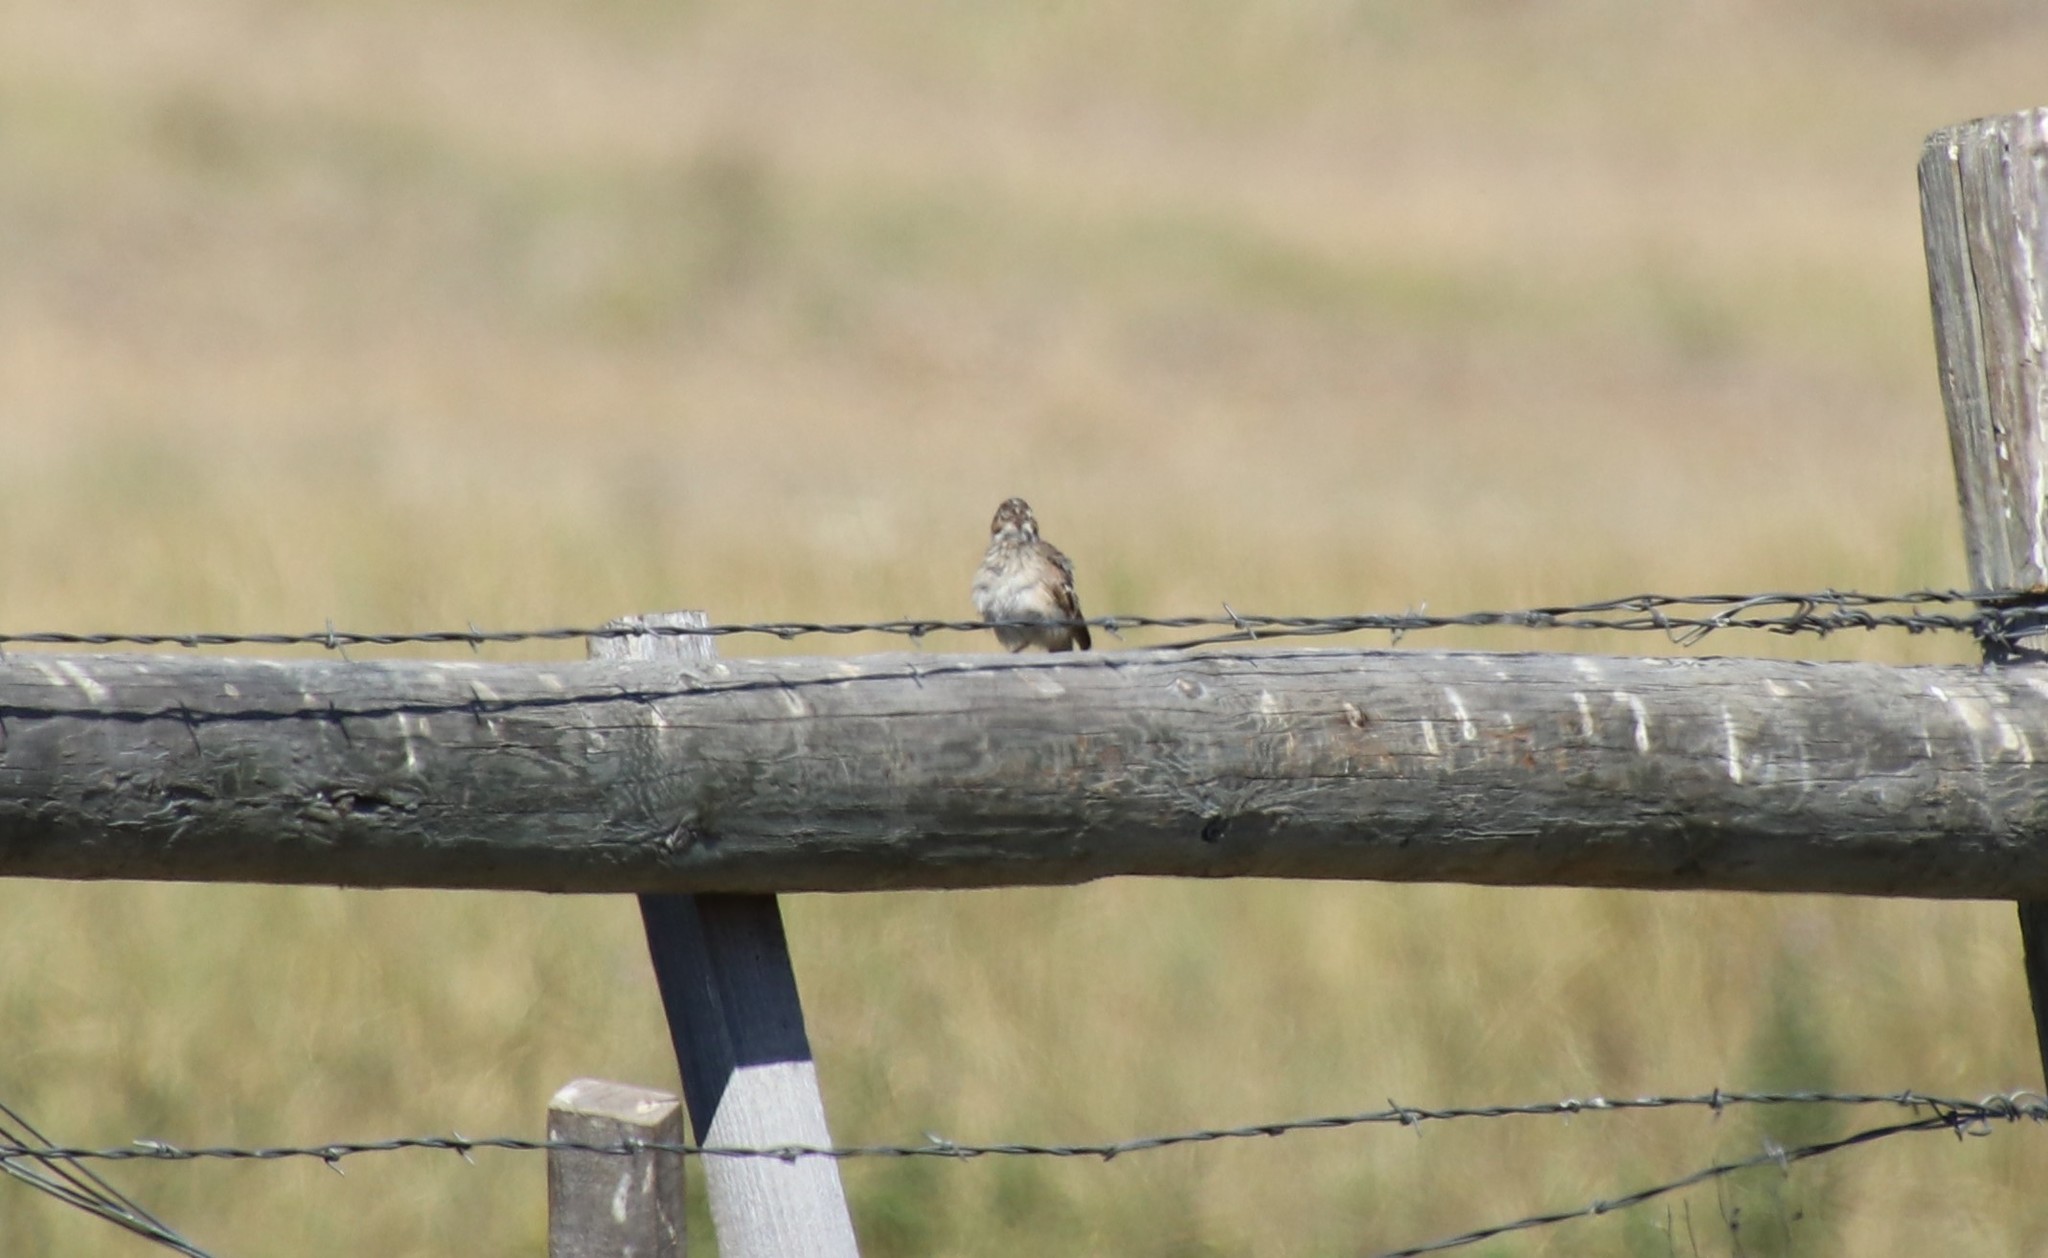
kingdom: Animalia
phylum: Chordata
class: Aves
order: Passeriformes
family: Passerellidae
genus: Pooecetes
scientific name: Pooecetes gramineus
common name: Vesper sparrow
